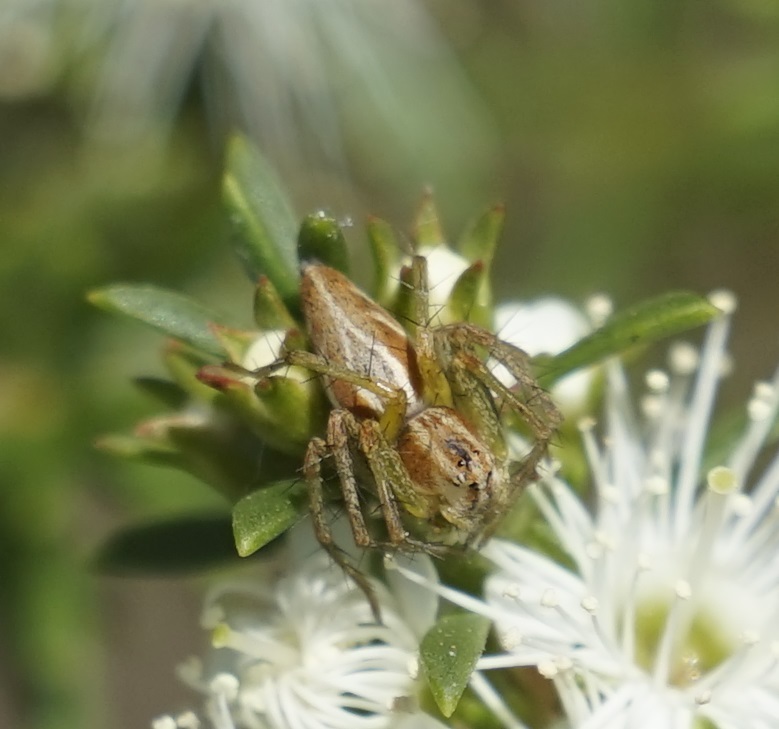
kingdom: Animalia
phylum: Arthropoda
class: Arachnida
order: Araneae
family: Oxyopidae
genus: Oxyopes
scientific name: Oxyopes amoenus
